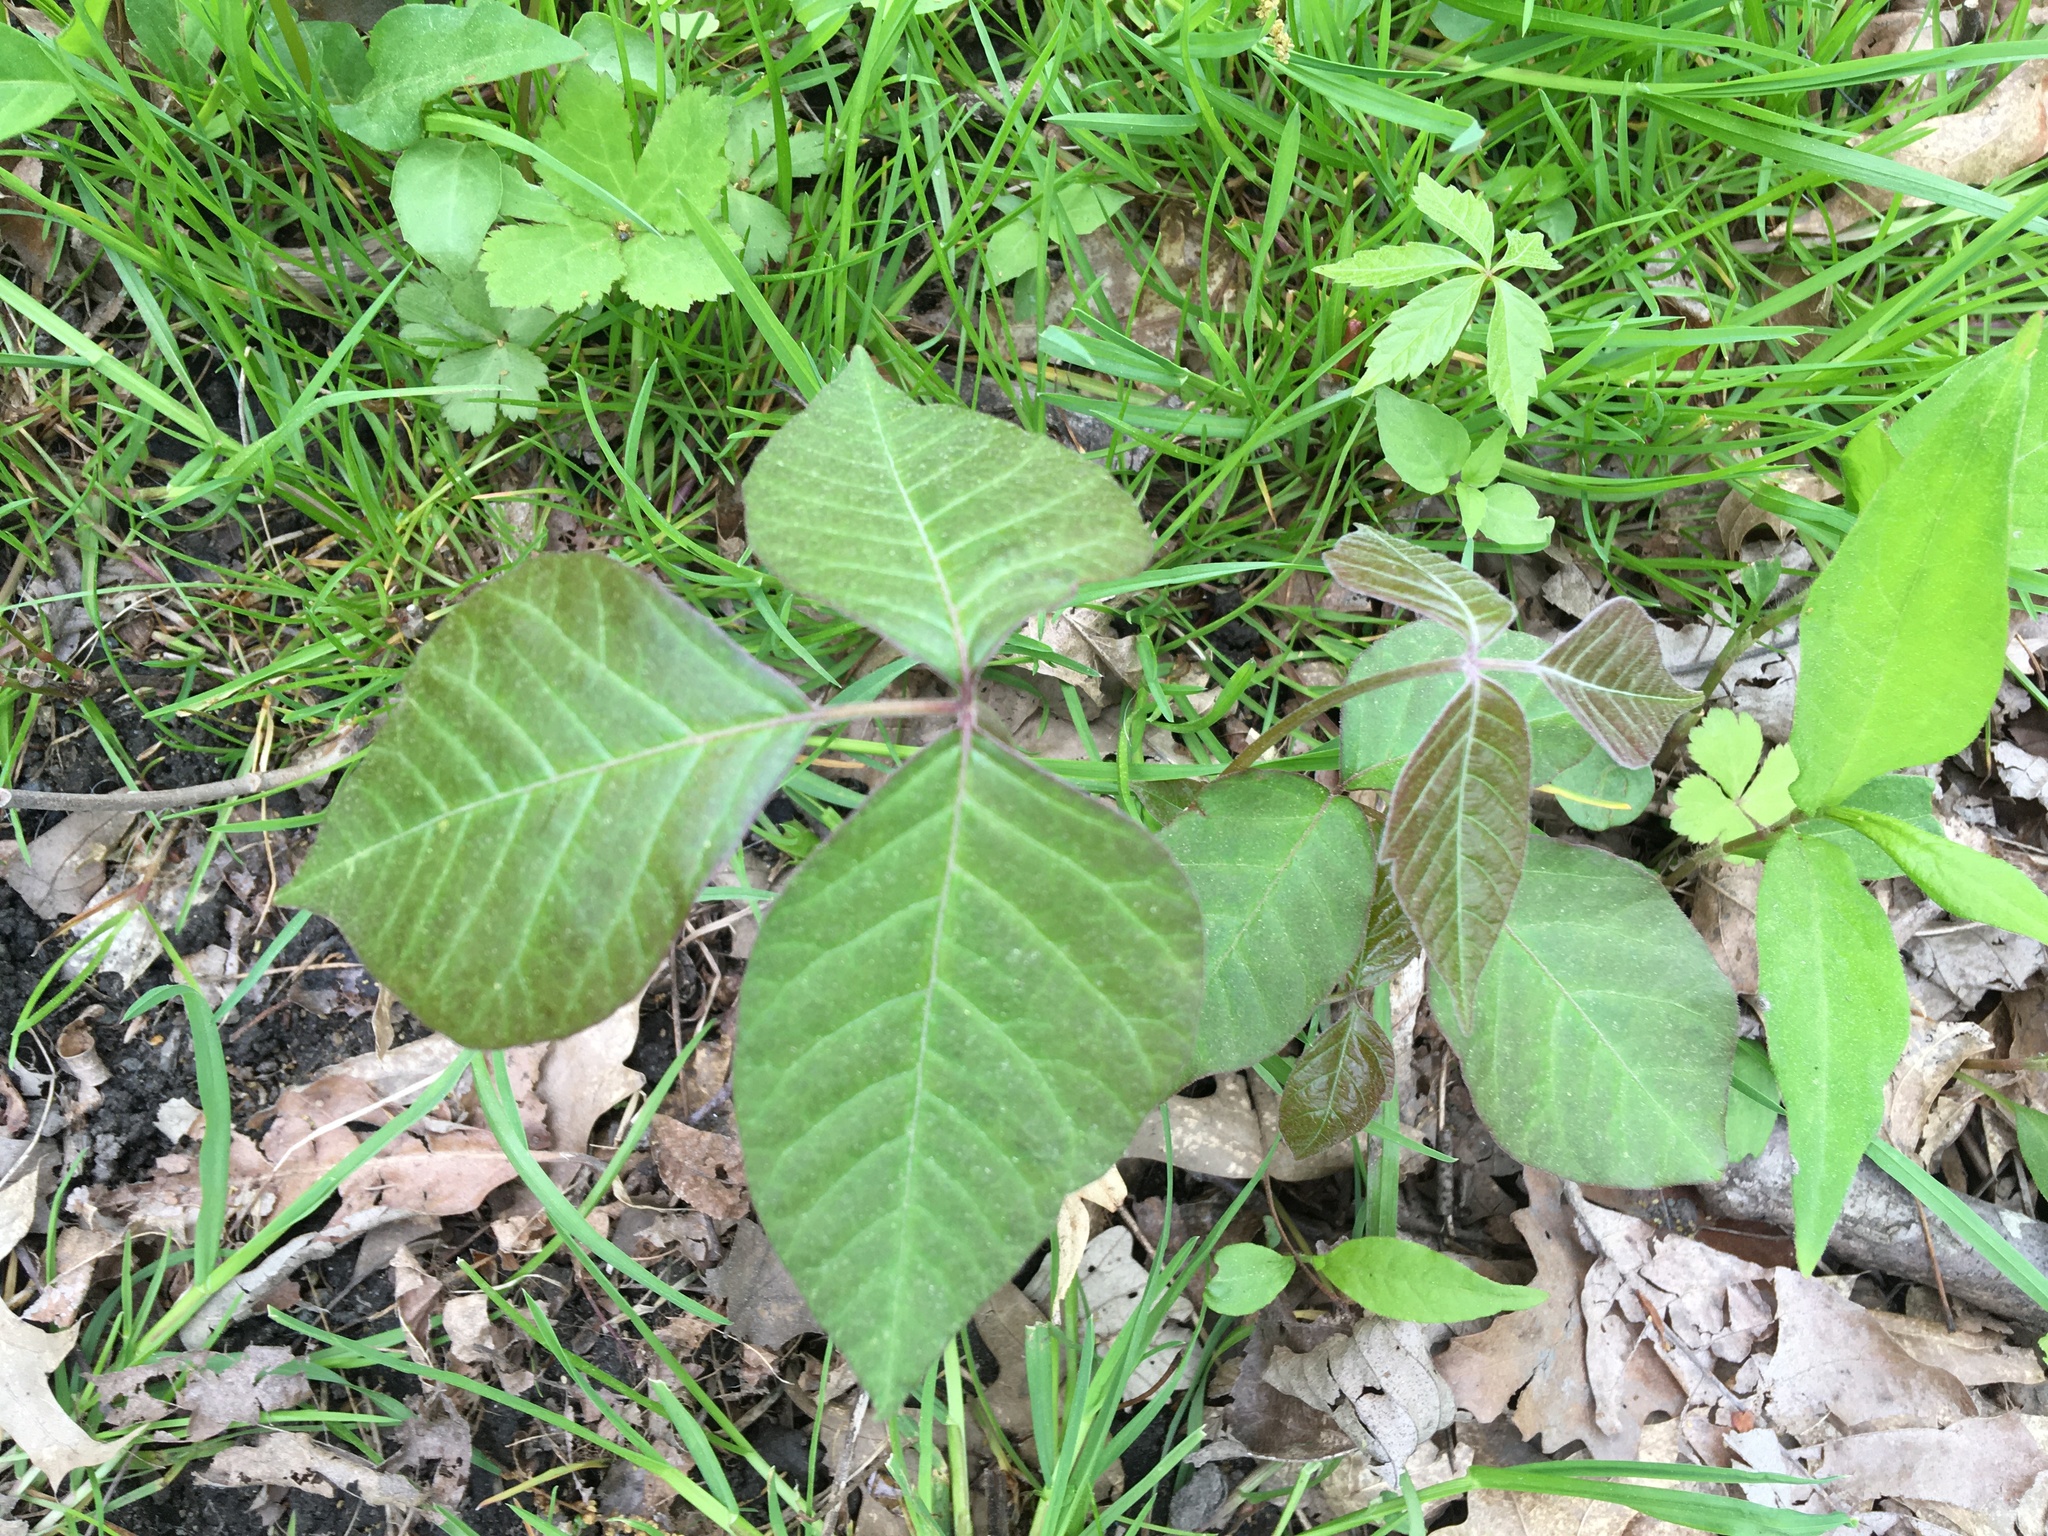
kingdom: Plantae
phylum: Tracheophyta
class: Magnoliopsida
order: Sapindales
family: Anacardiaceae
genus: Toxicodendron
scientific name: Toxicodendron radicans
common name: Poison ivy
